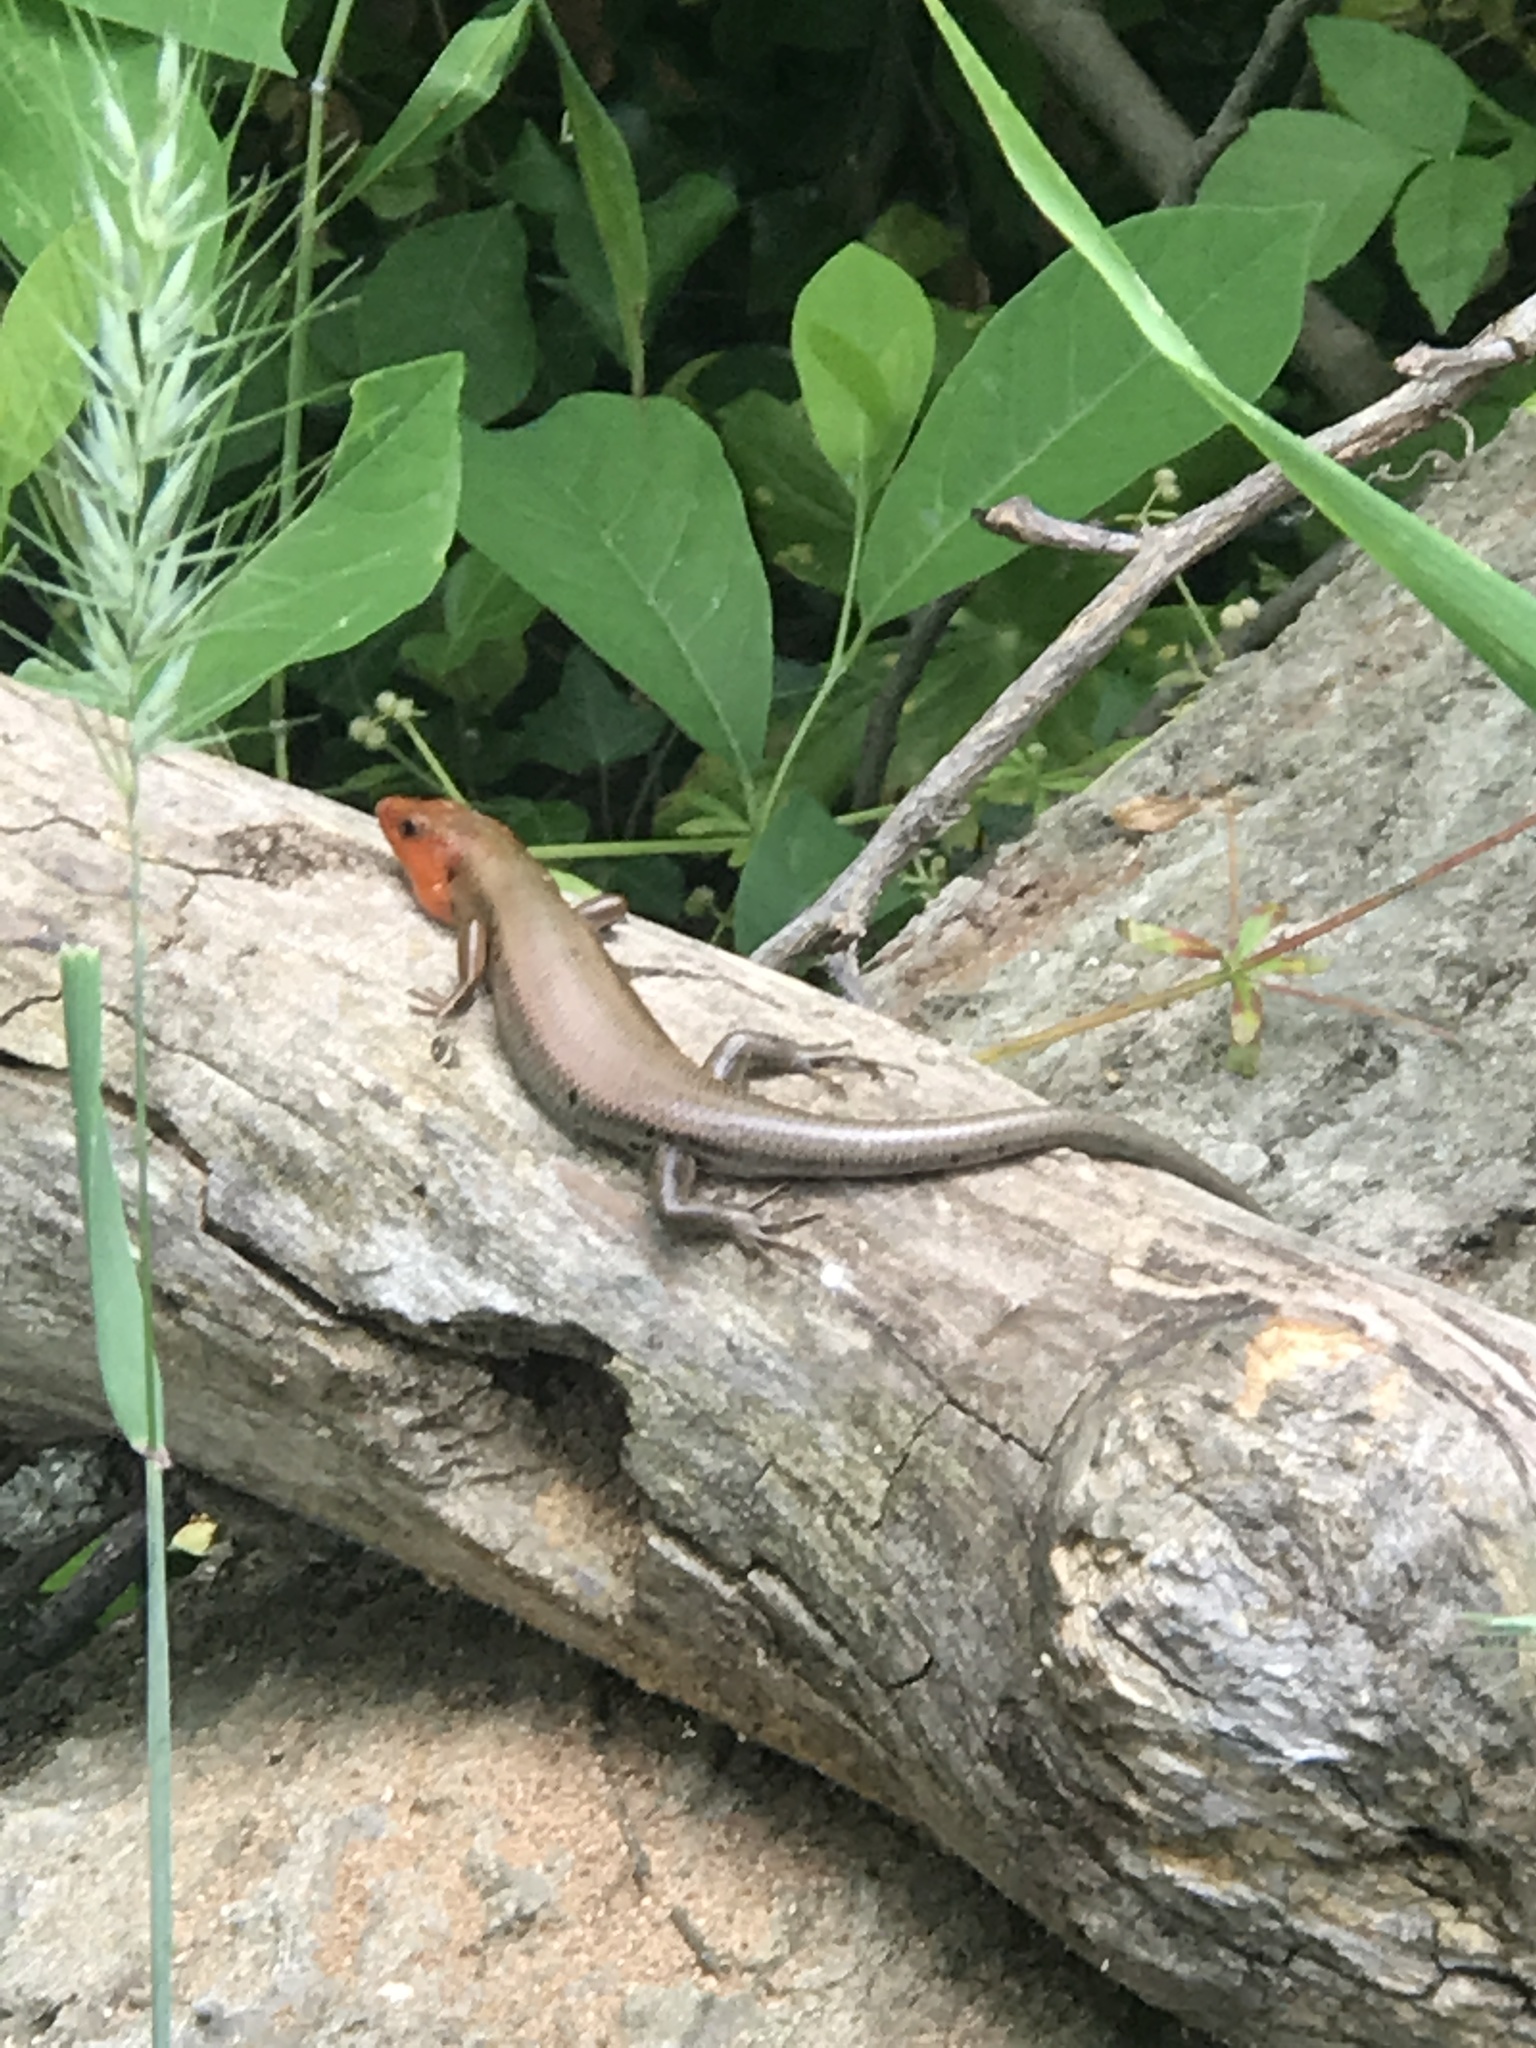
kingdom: Animalia
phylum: Chordata
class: Squamata
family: Scincidae
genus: Plestiodon
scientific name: Plestiodon fasciatus
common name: Five-lined skink
